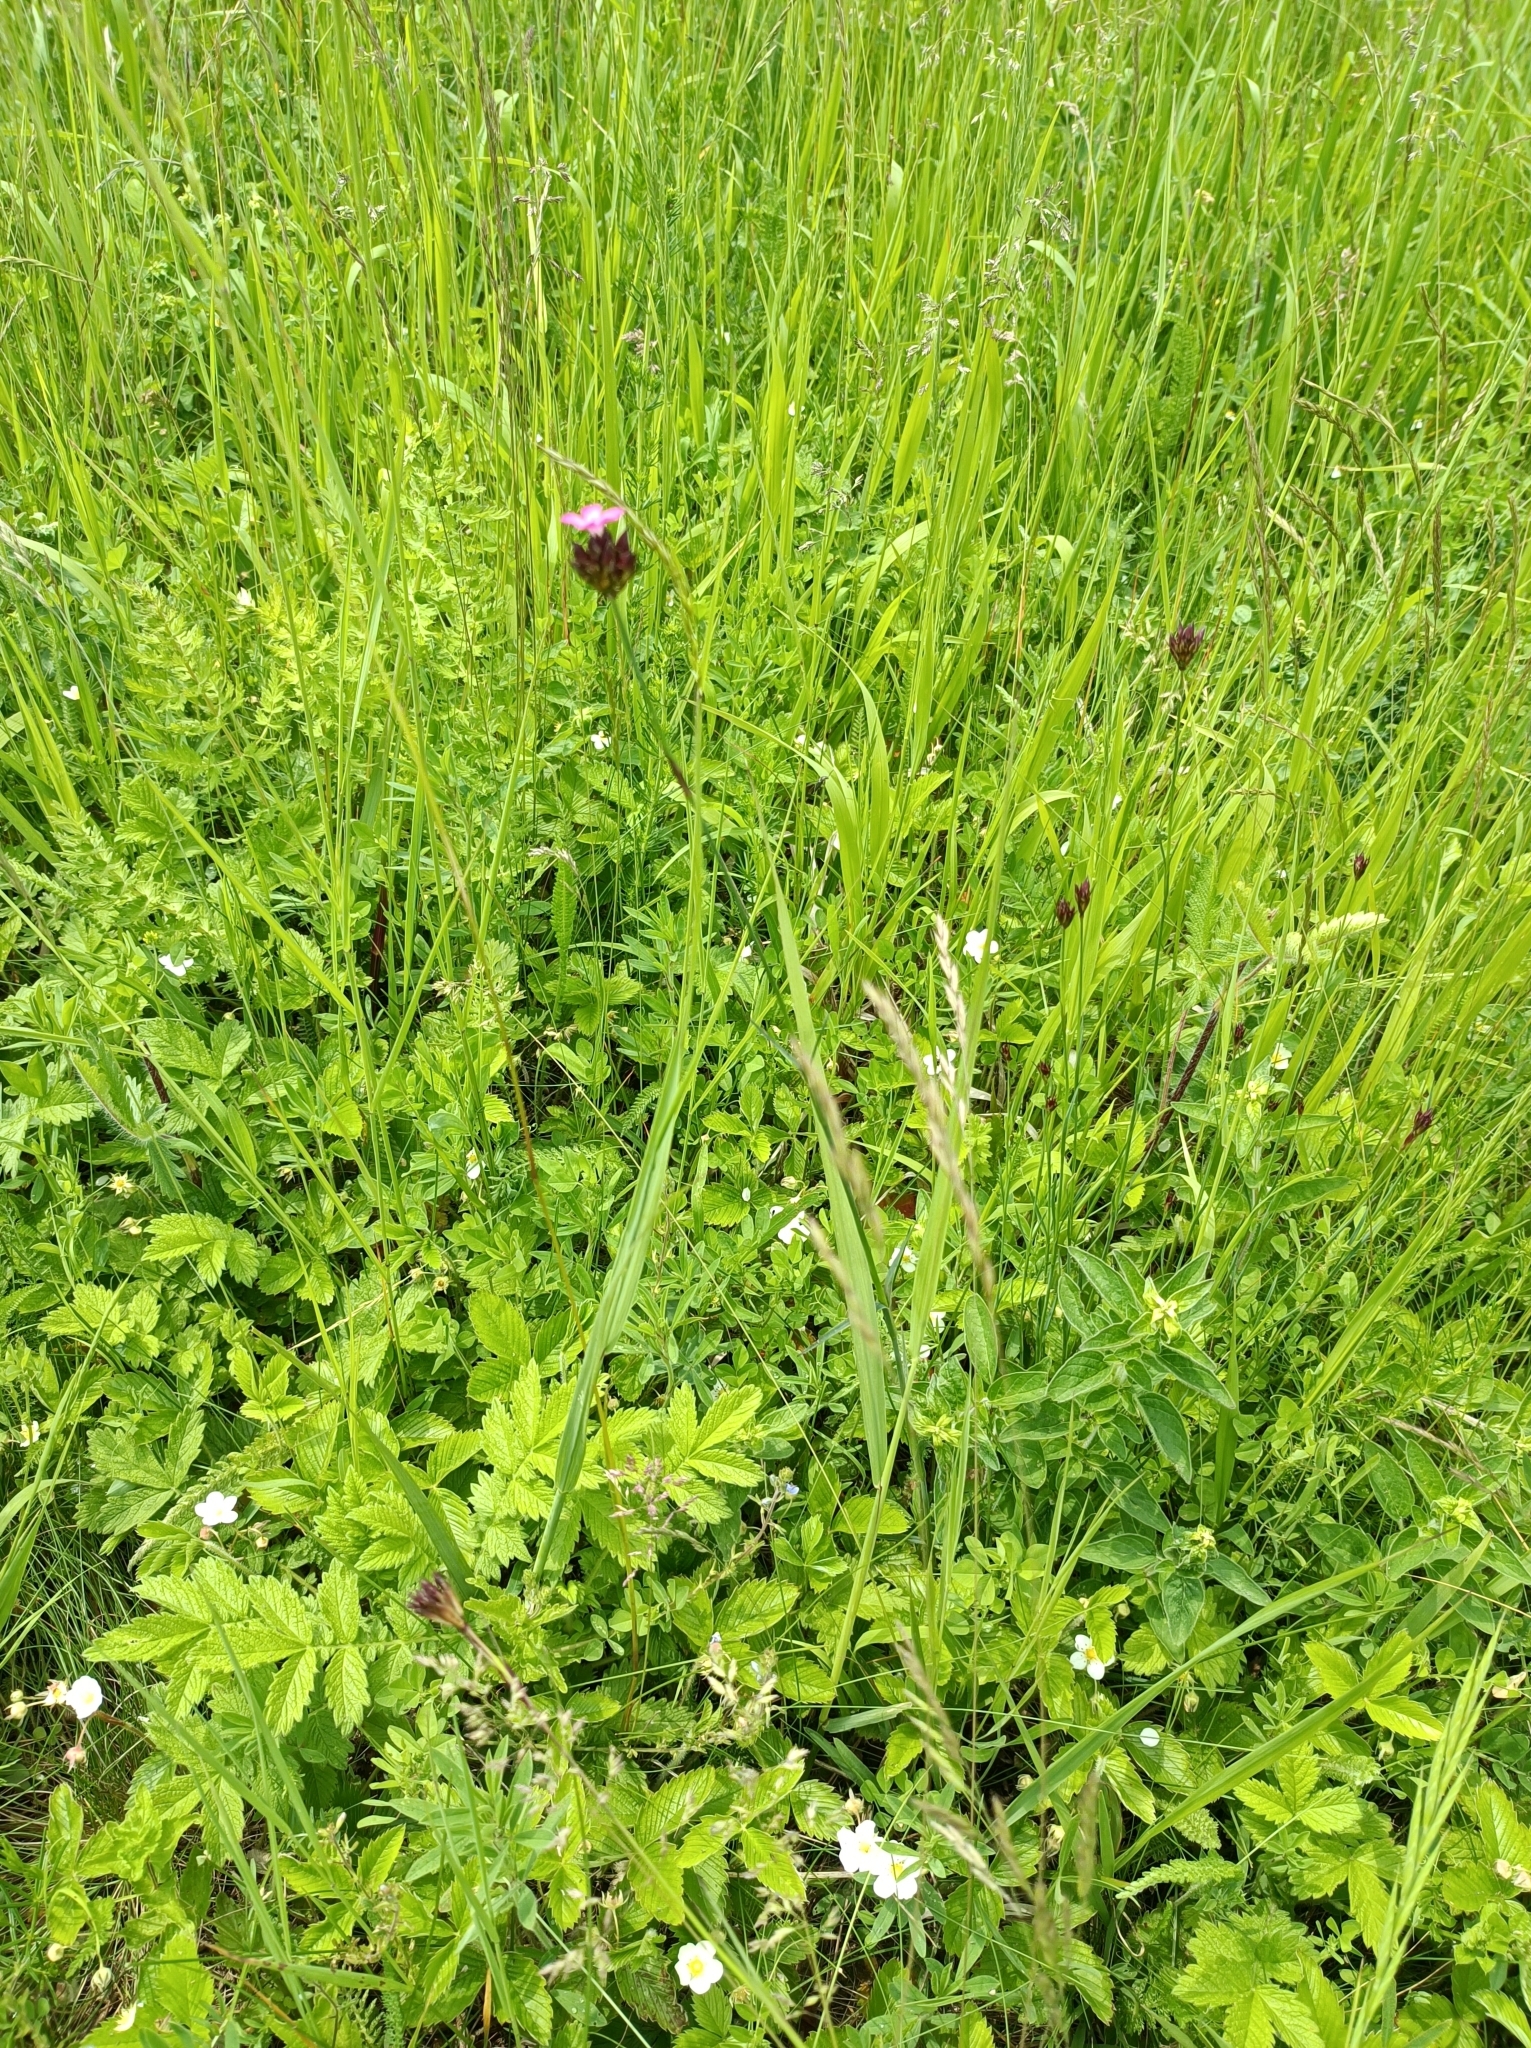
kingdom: Plantae
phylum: Tracheophyta
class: Magnoliopsida
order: Caryophyllales
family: Caryophyllaceae
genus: Dianthus
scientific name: Dianthus carthusianorum
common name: Carthusian pink
